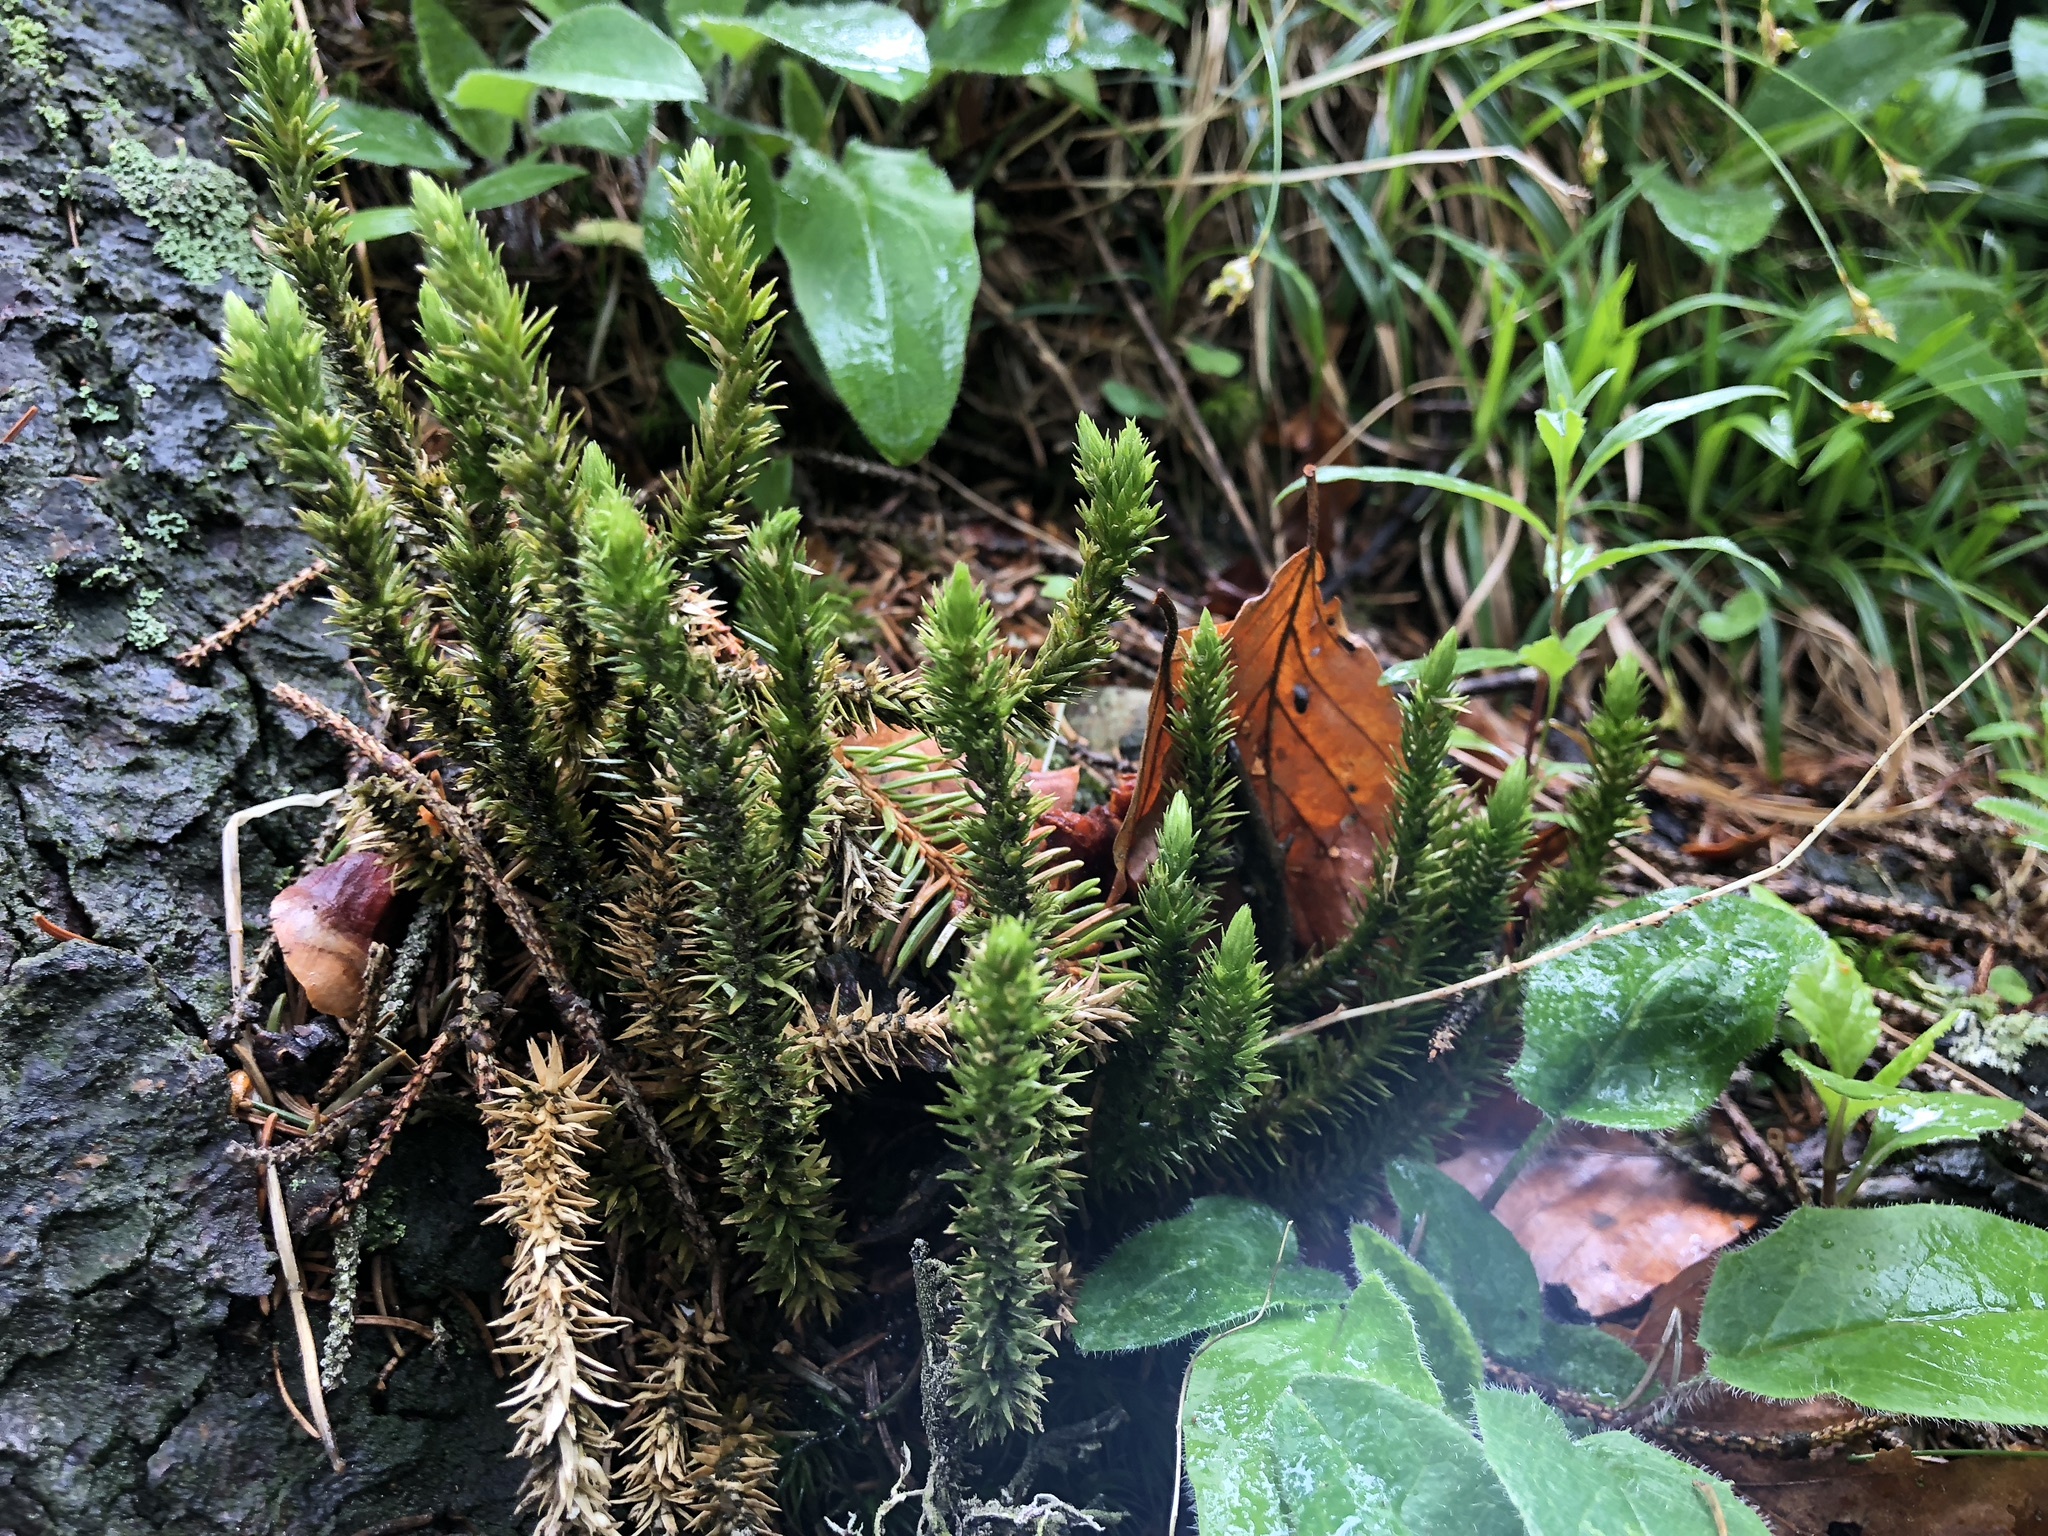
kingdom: Plantae
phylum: Tracheophyta
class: Lycopodiopsida
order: Lycopodiales
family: Lycopodiaceae
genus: Huperzia
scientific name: Huperzia selago
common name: Northern firmoss
